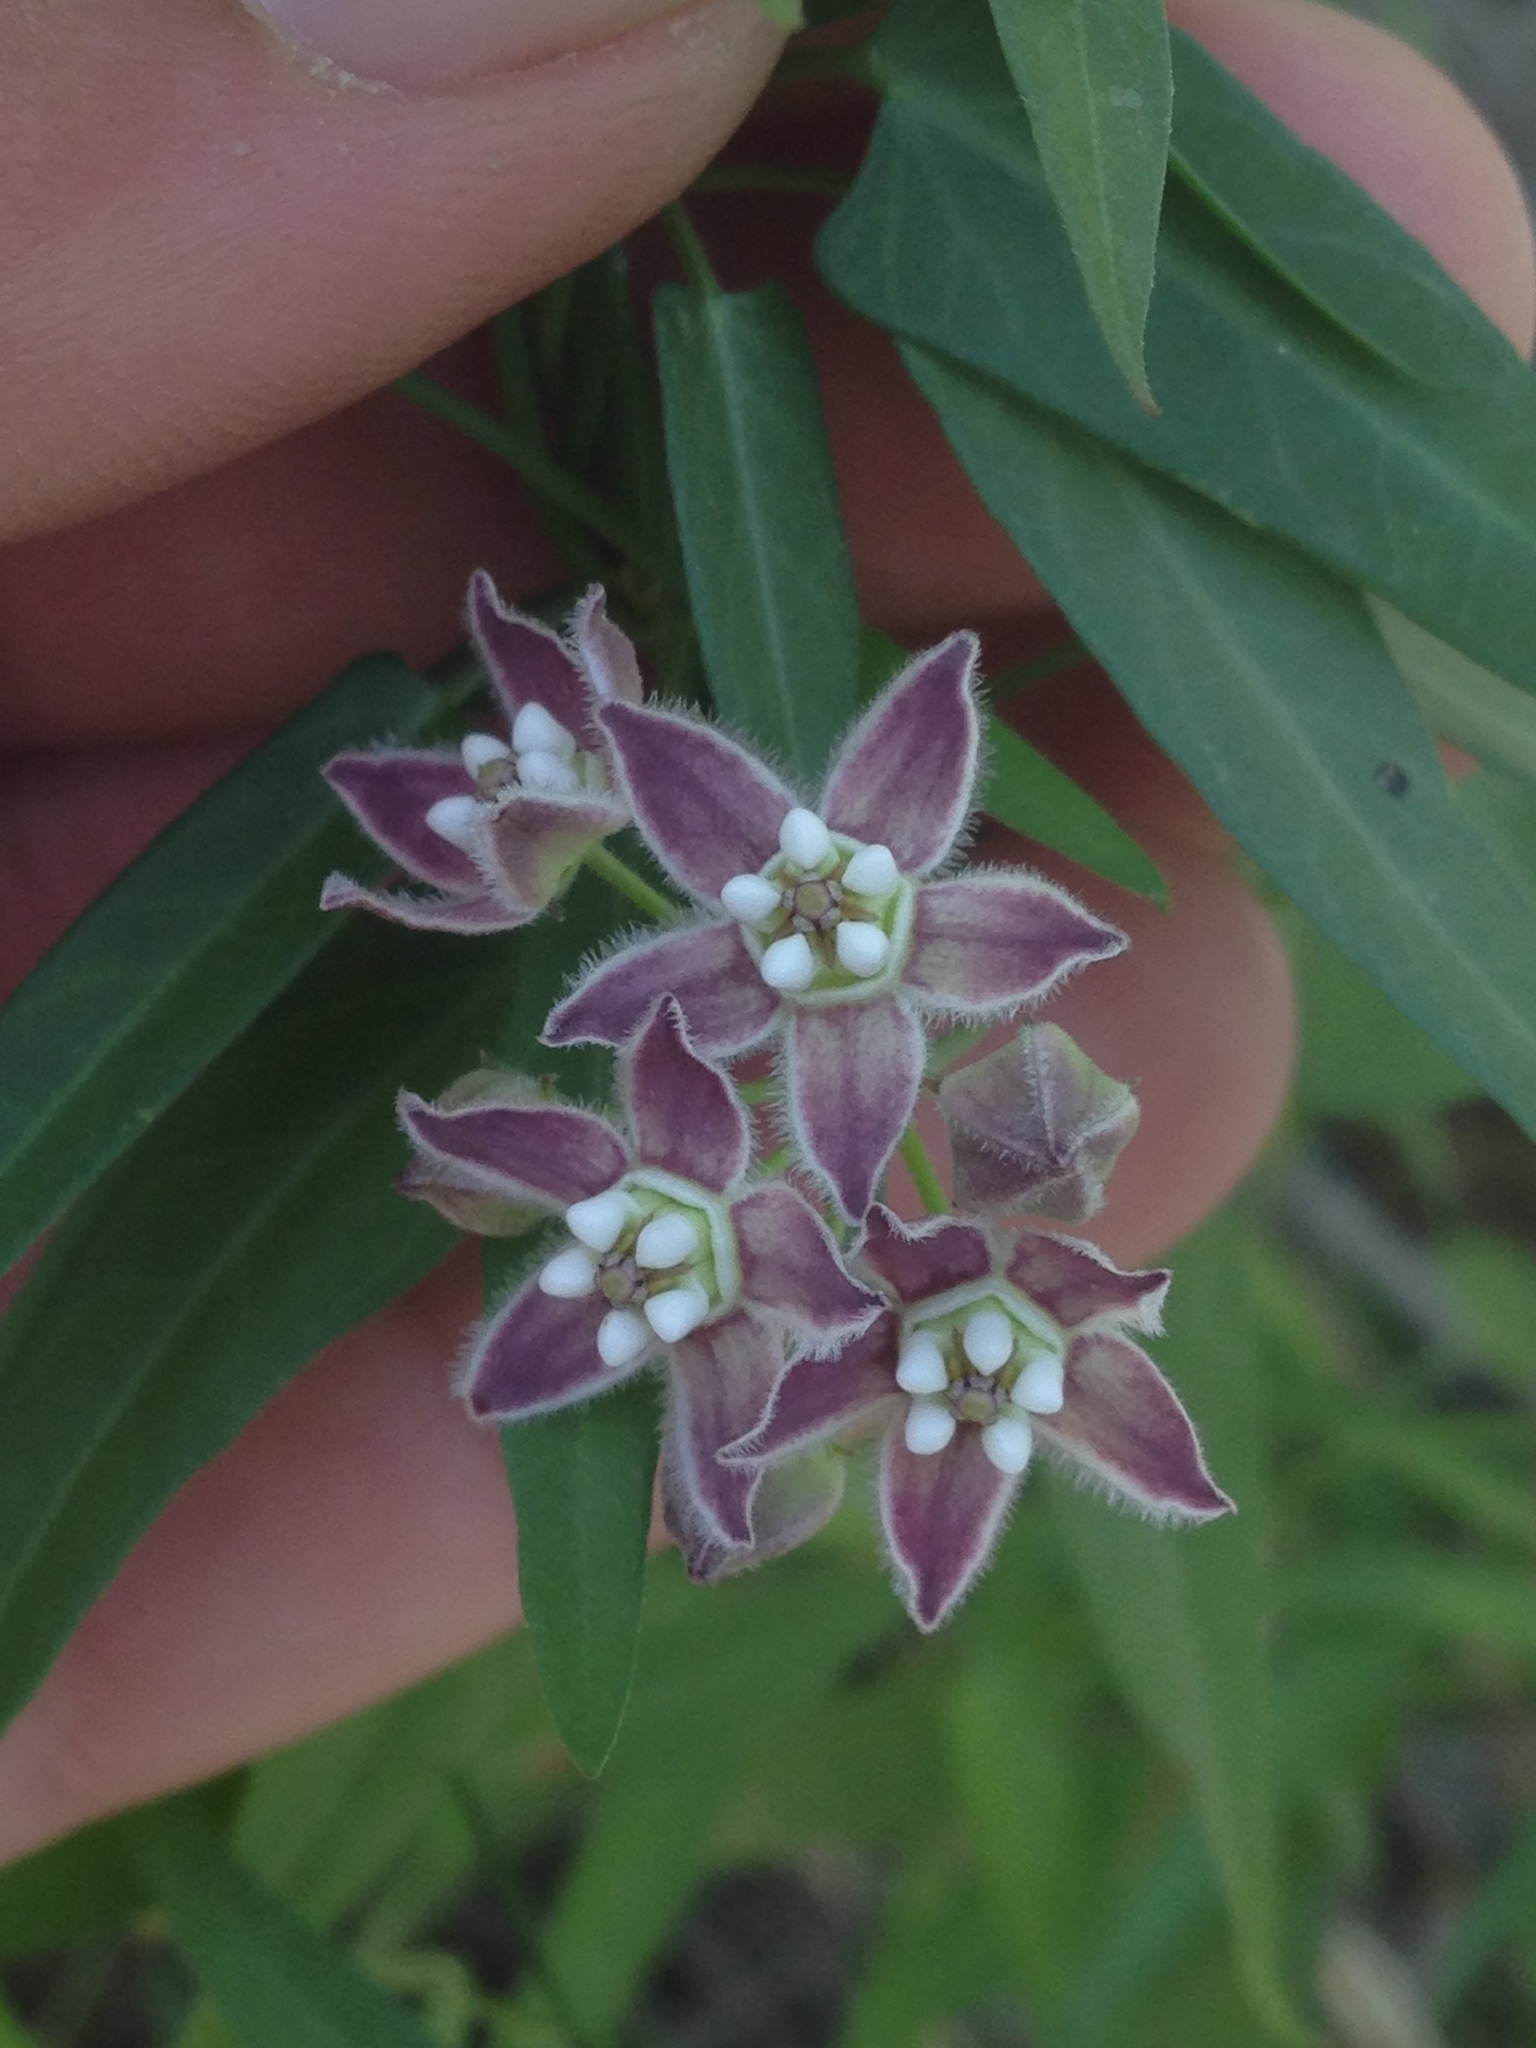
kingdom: Plantae
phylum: Tracheophyta
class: Magnoliopsida
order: Gentianales
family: Apocynaceae
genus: Funastrum
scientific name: Funastrum heterophyllum
